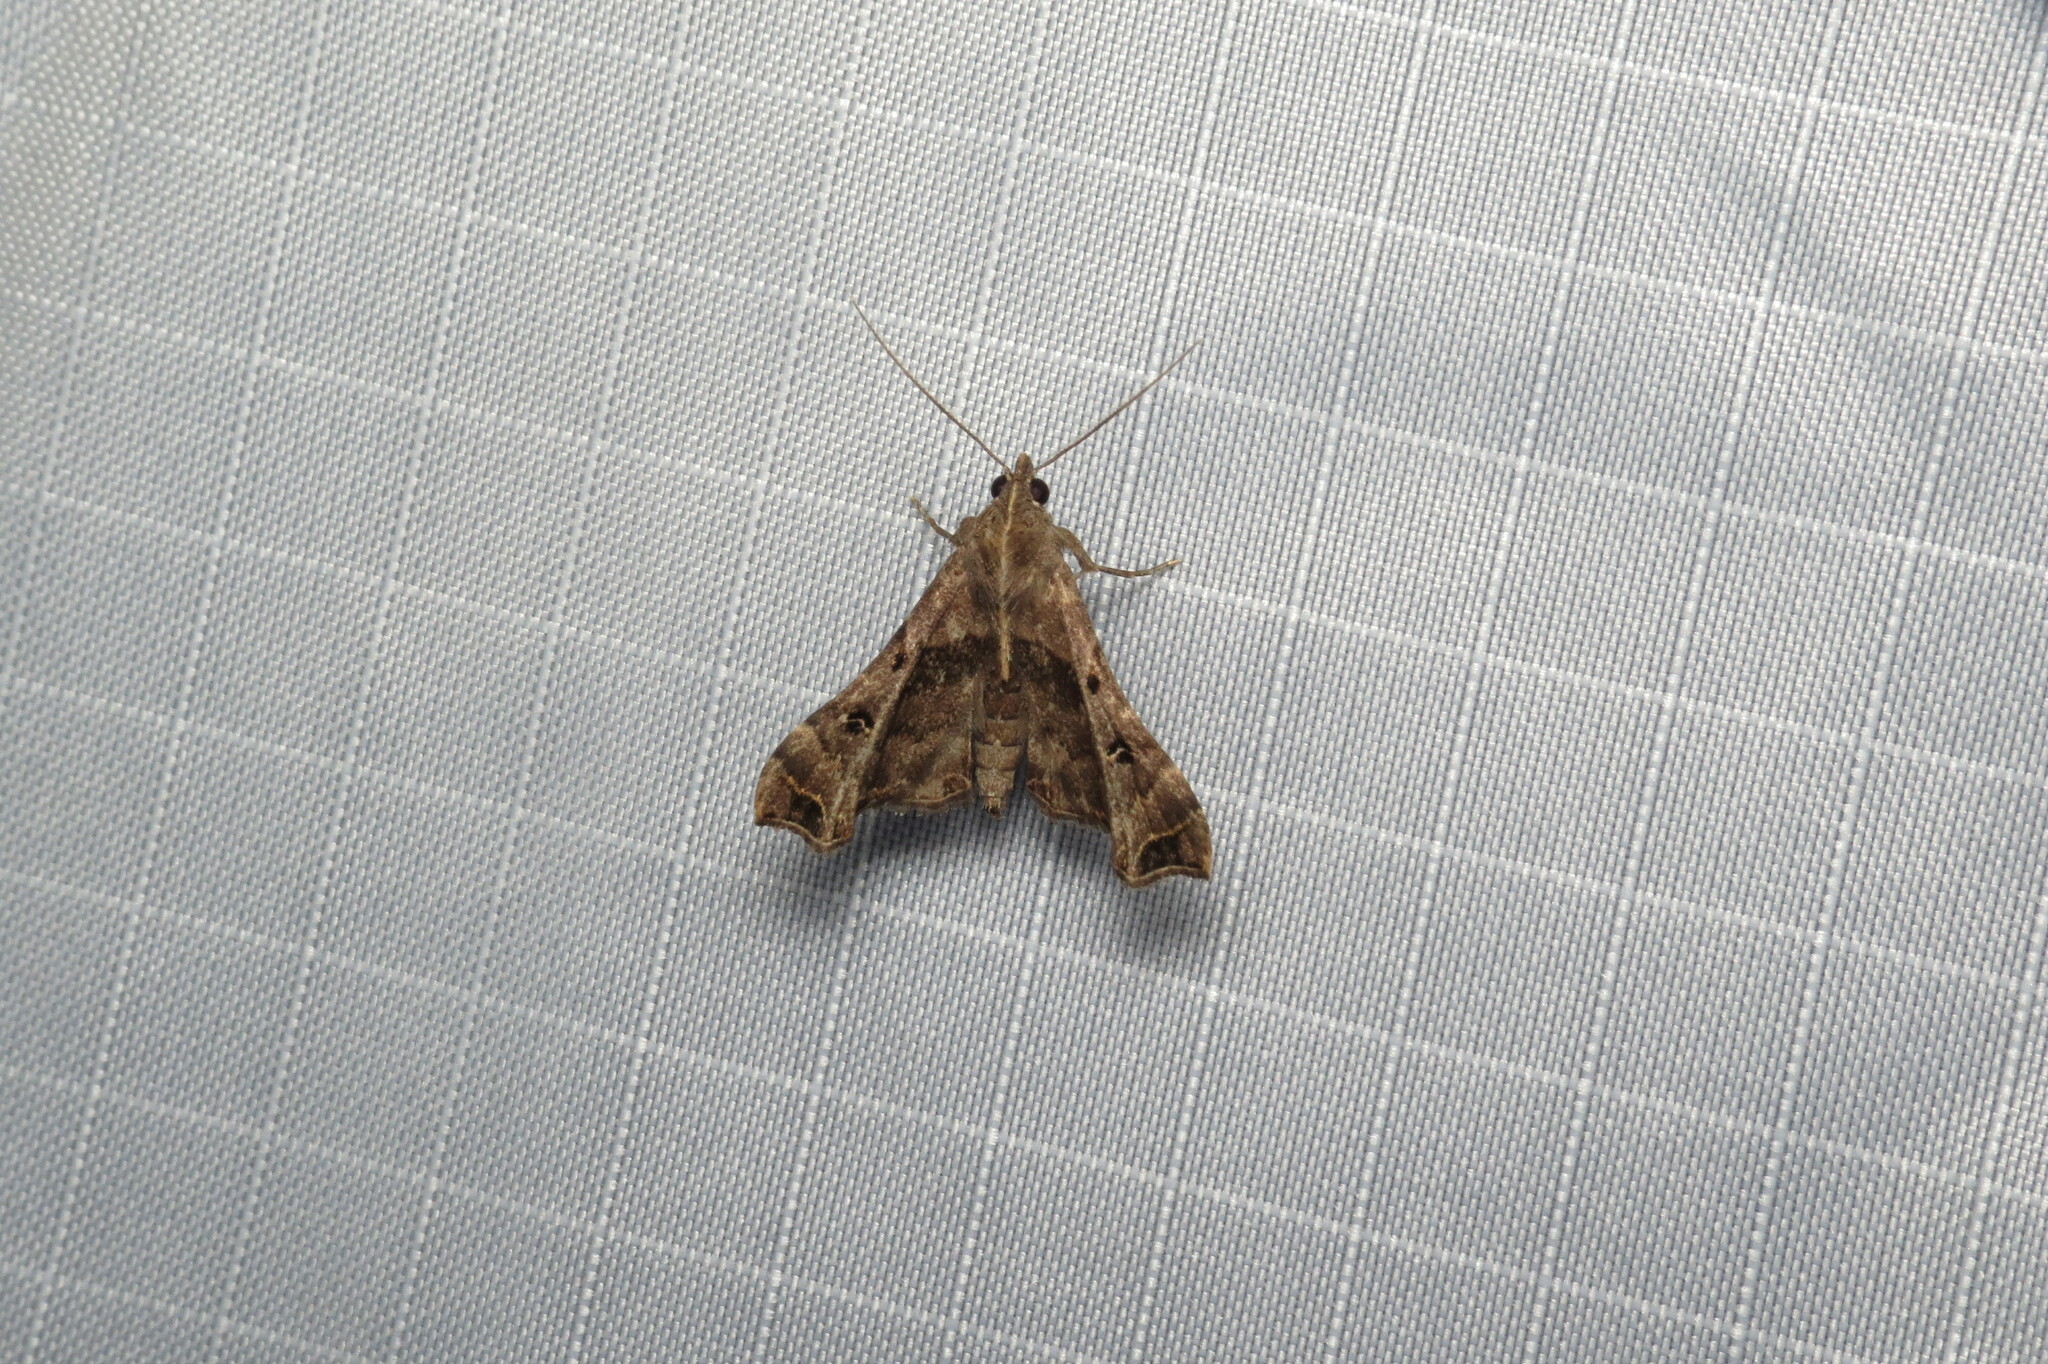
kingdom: Animalia
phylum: Arthropoda
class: Insecta
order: Lepidoptera
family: Erebidae
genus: Palthis
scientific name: Palthis asopialis
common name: Faint-spotted palthis moth
